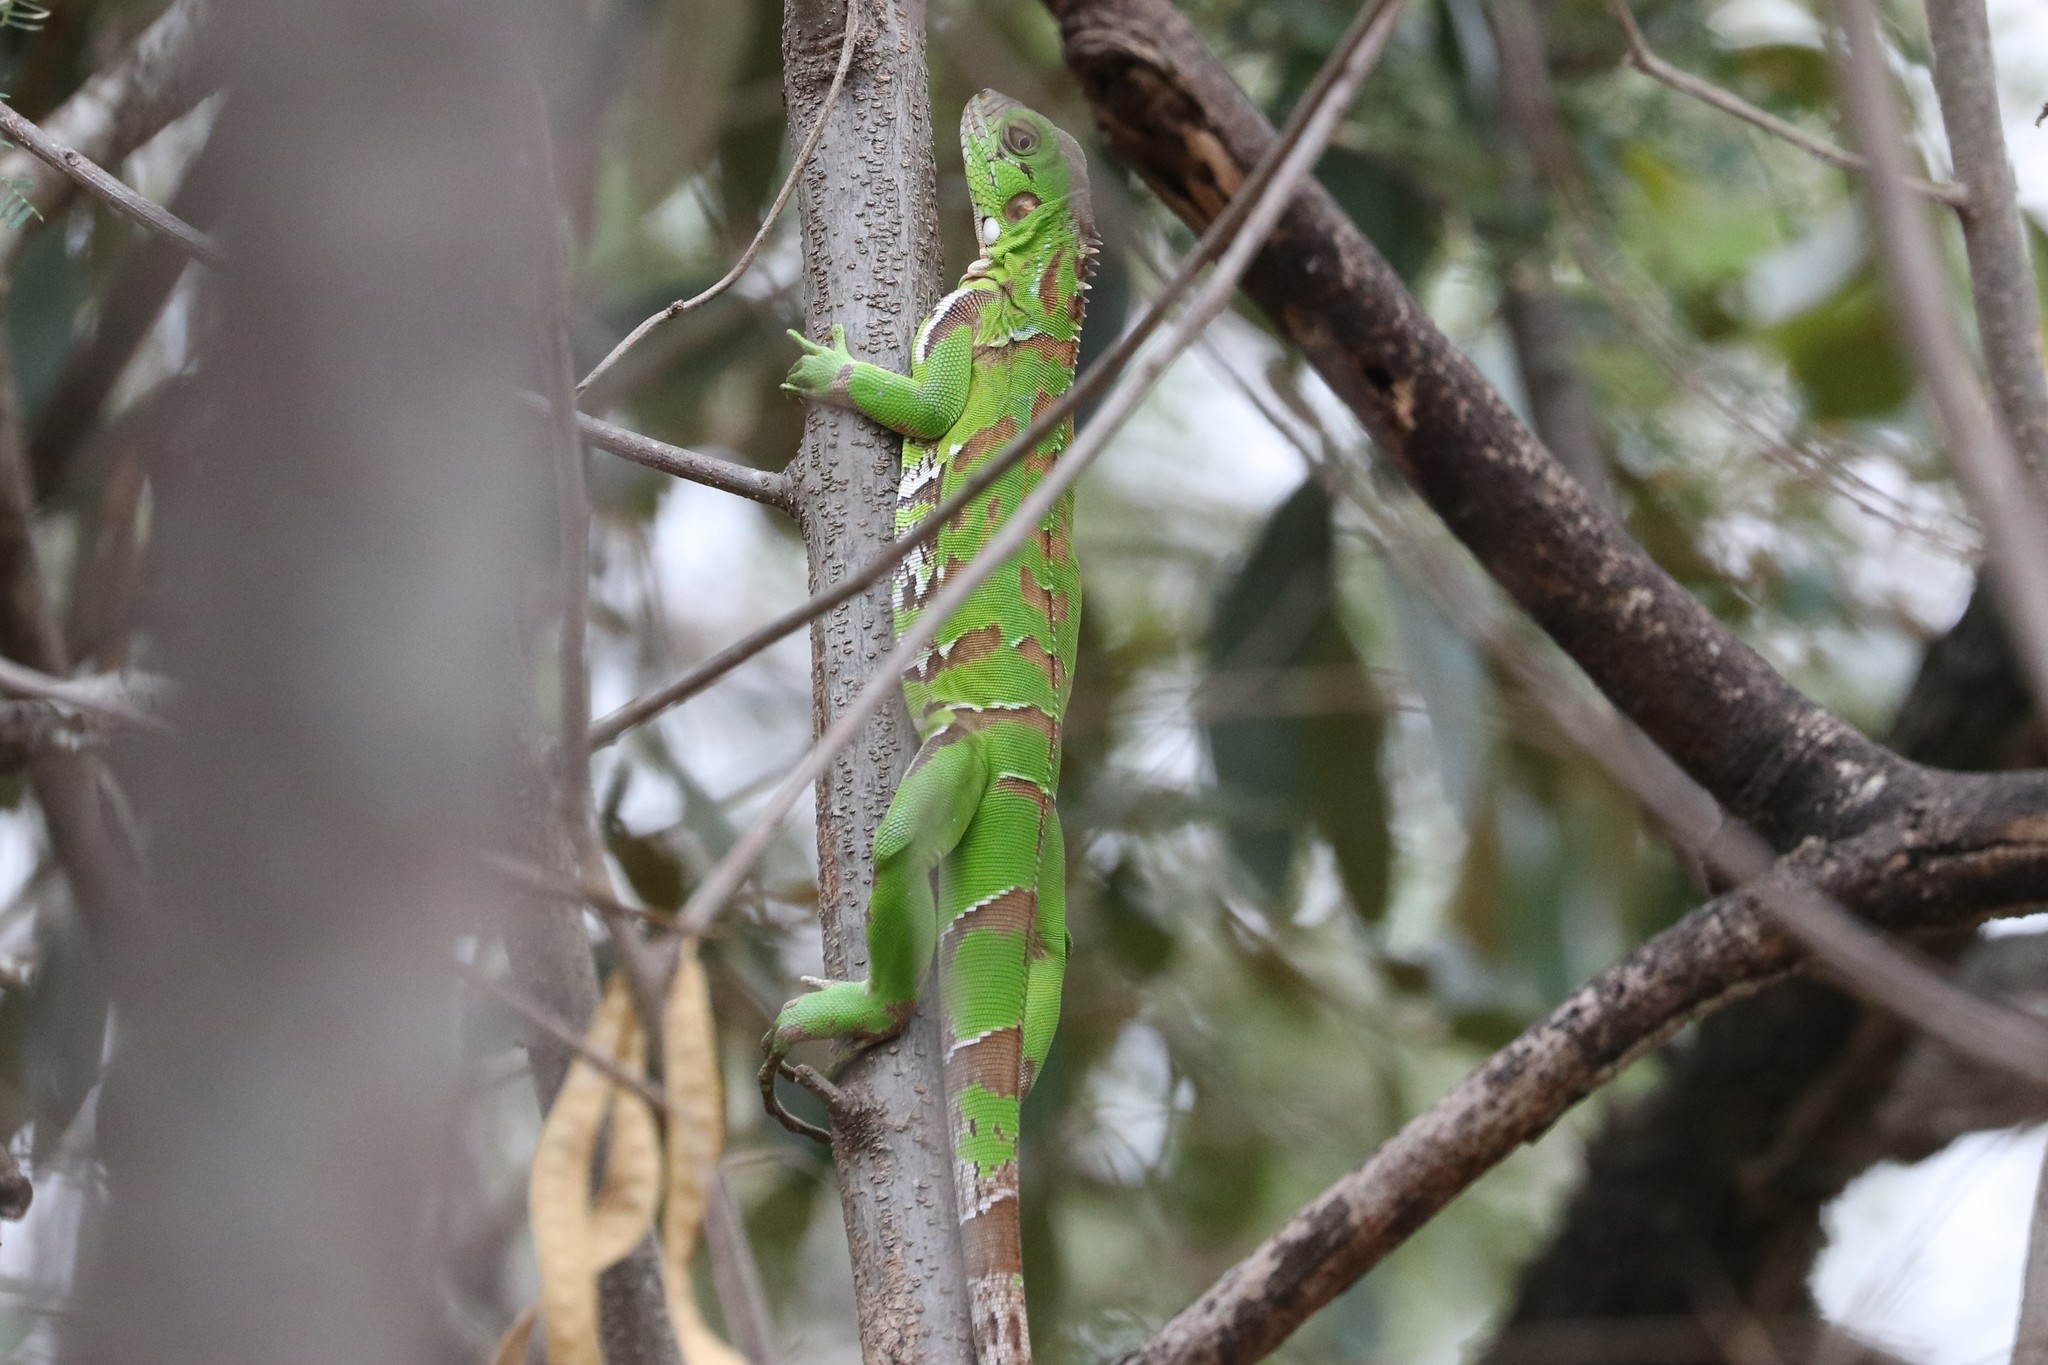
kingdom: Animalia
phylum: Chordata
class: Squamata
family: Iguanidae
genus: Iguana
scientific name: Iguana iguana
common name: Green iguana
